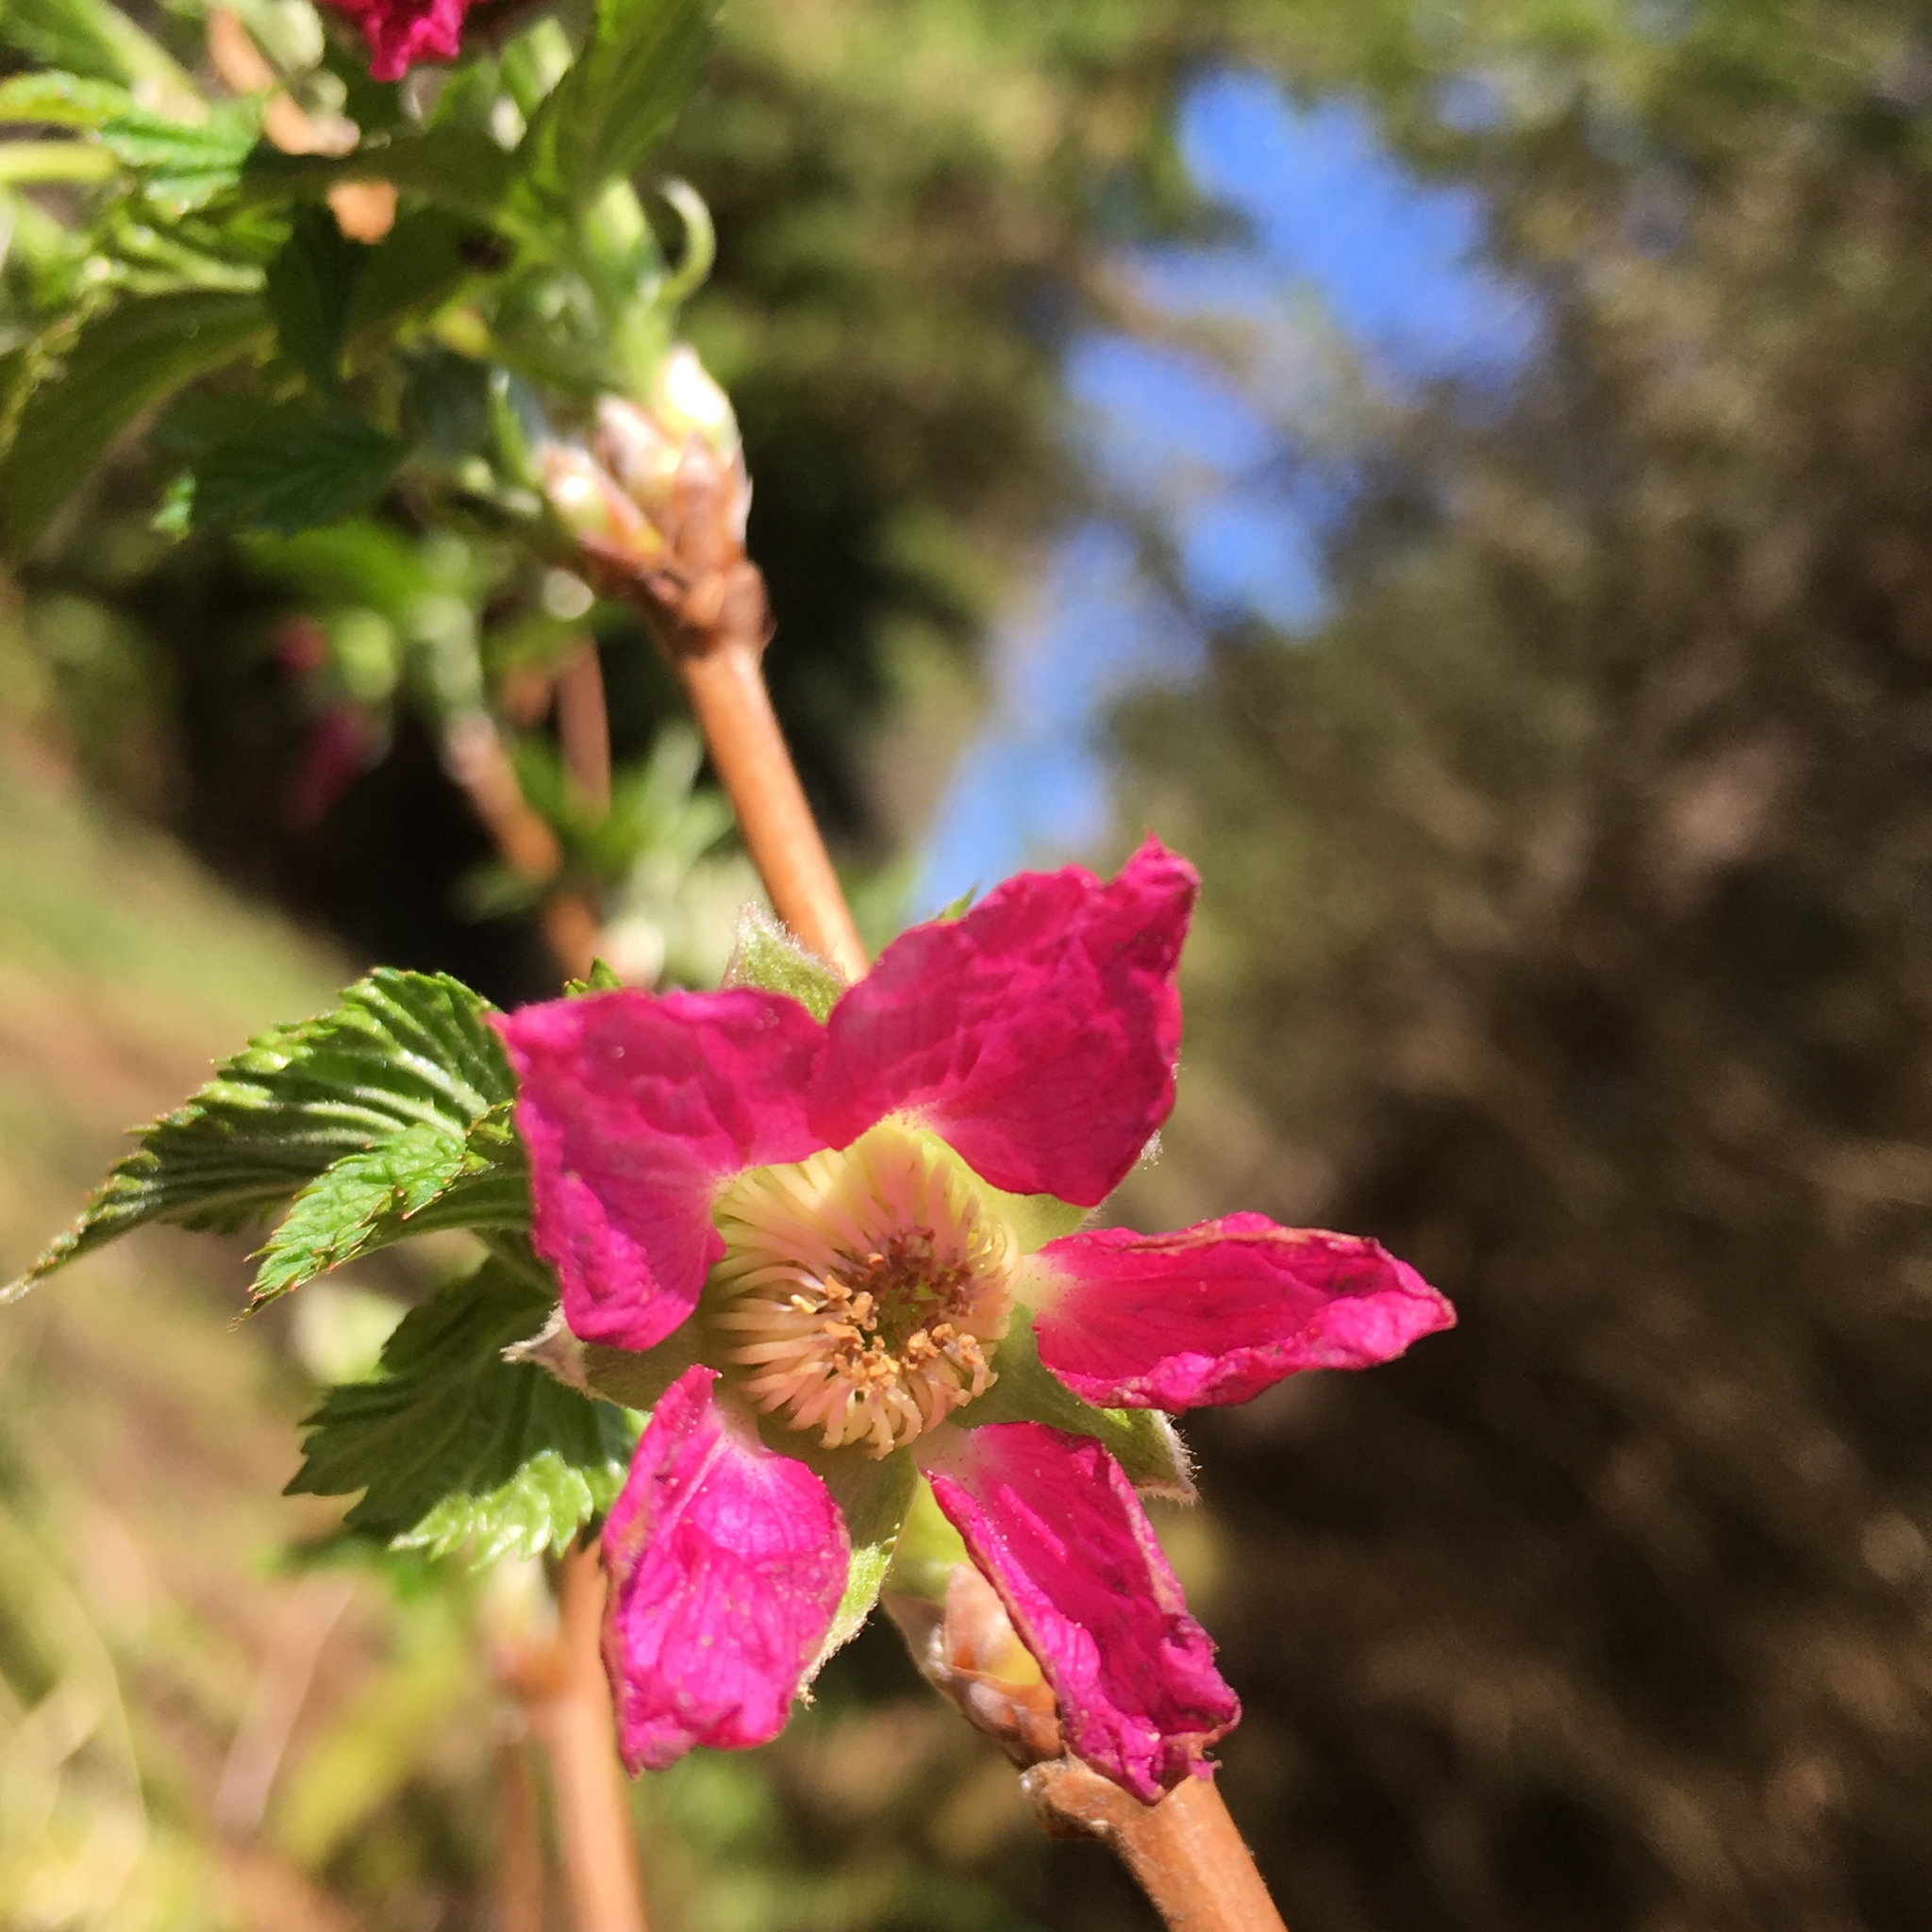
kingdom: Plantae
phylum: Tracheophyta
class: Magnoliopsida
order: Rosales
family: Rosaceae
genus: Rubus
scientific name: Rubus spectabilis
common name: Salmonberry
